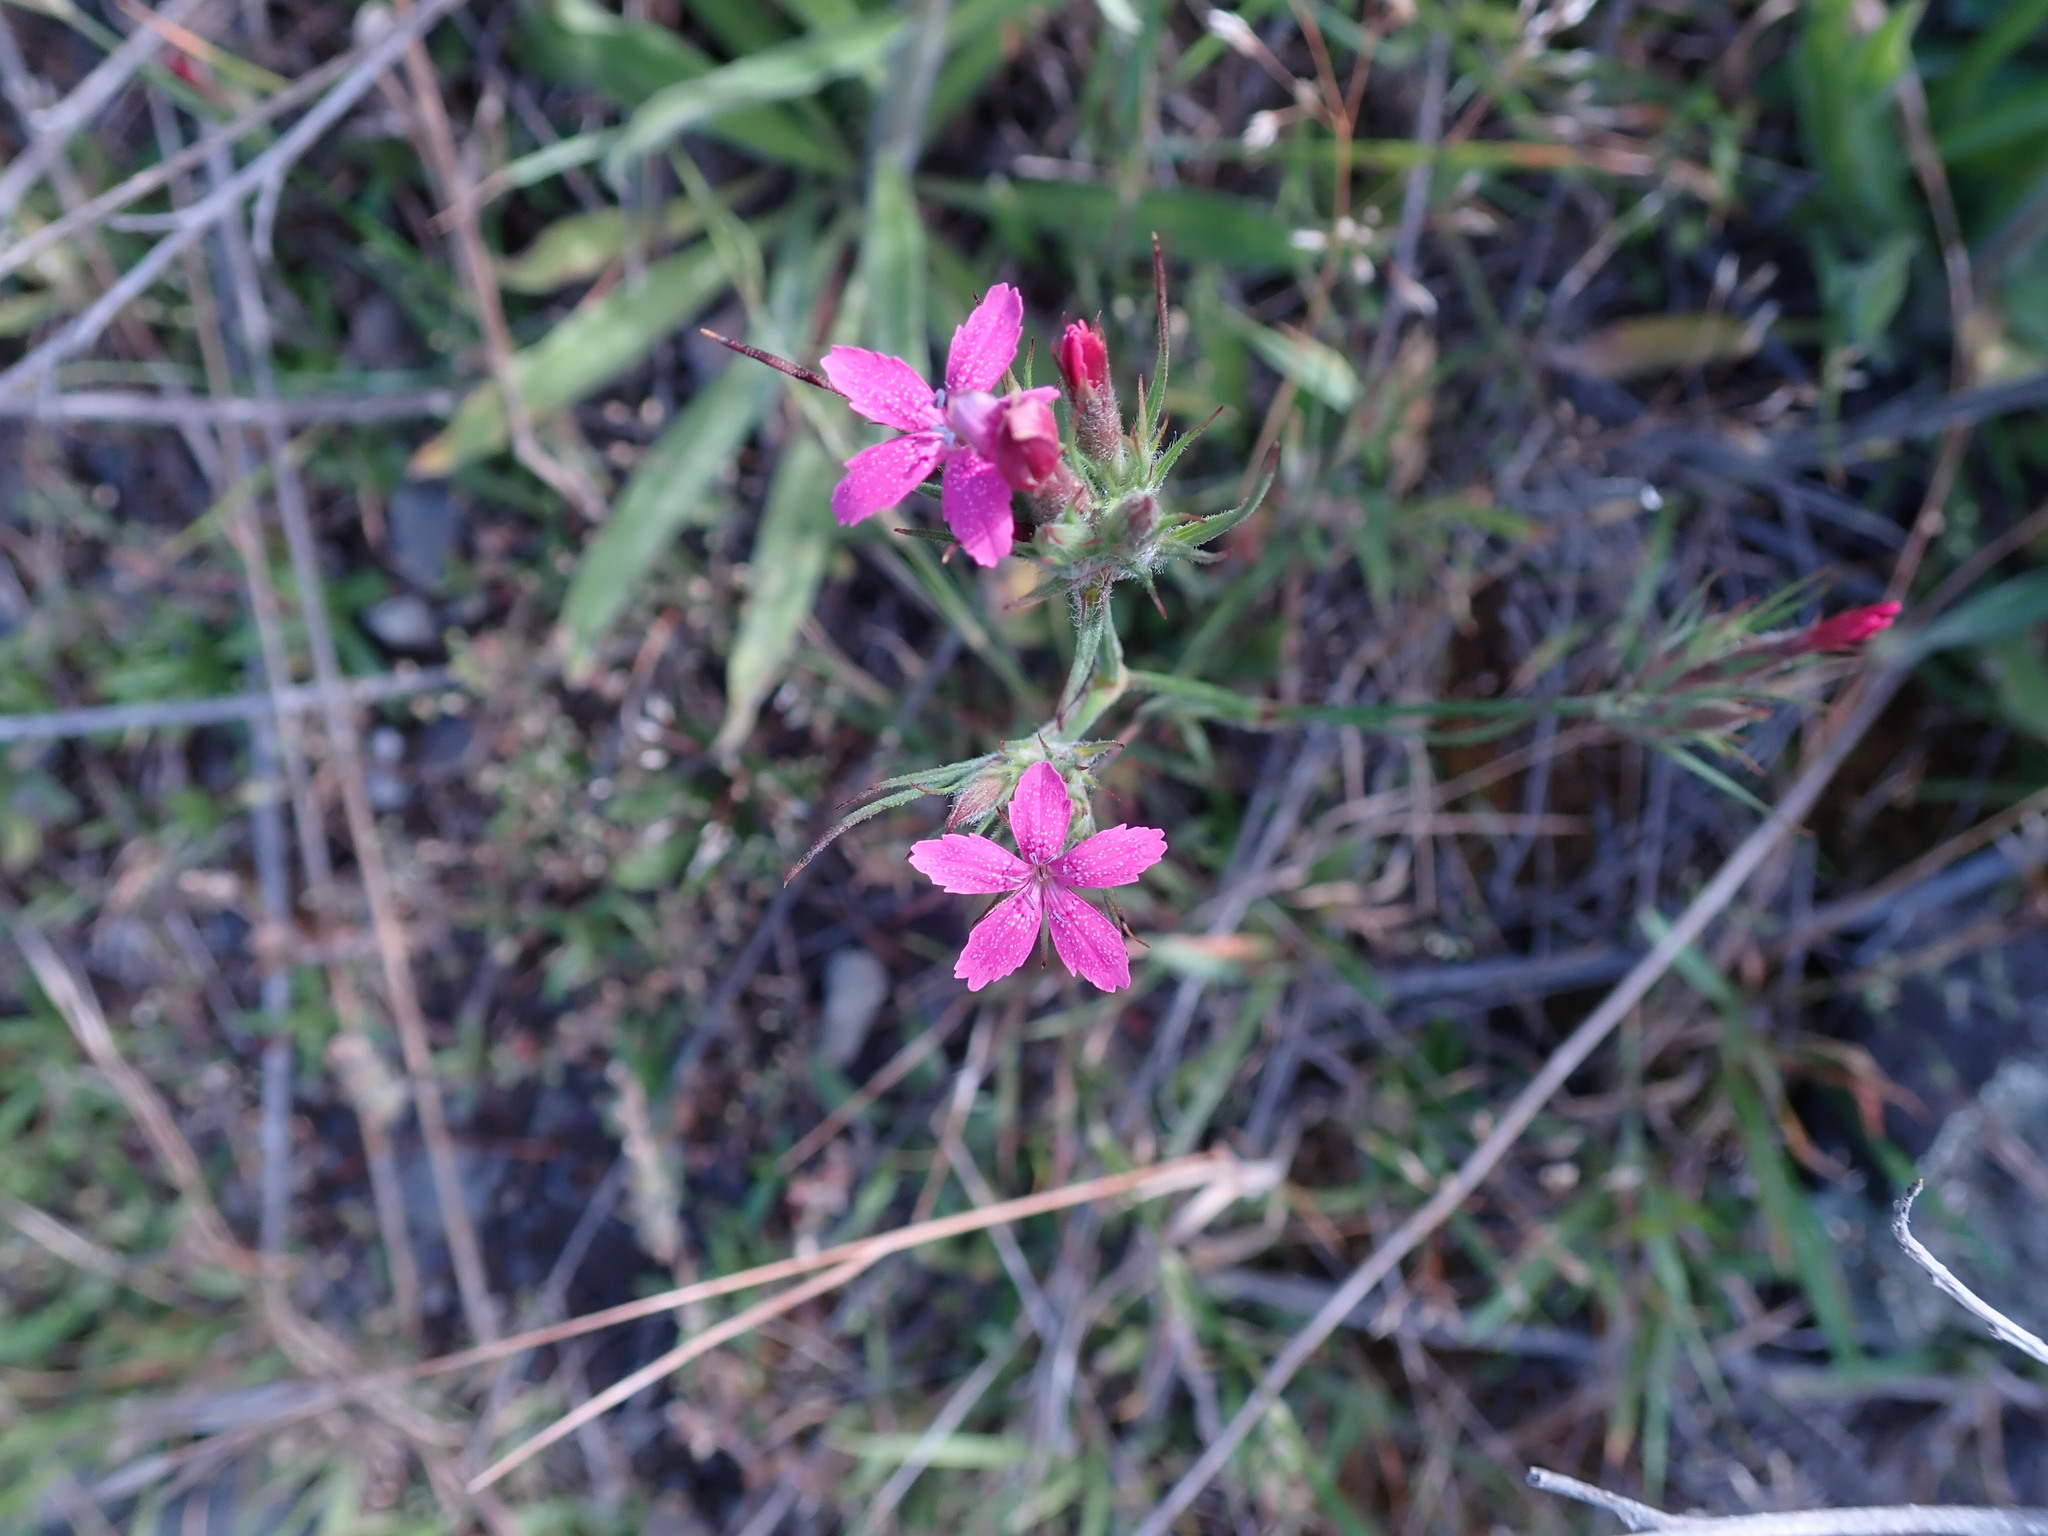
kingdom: Plantae
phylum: Tracheophyta
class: Magnoliopsida
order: Caryophyllales
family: Caryophyllaceae
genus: Dianthus
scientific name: Dianthus armeria
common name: Deptford pink
